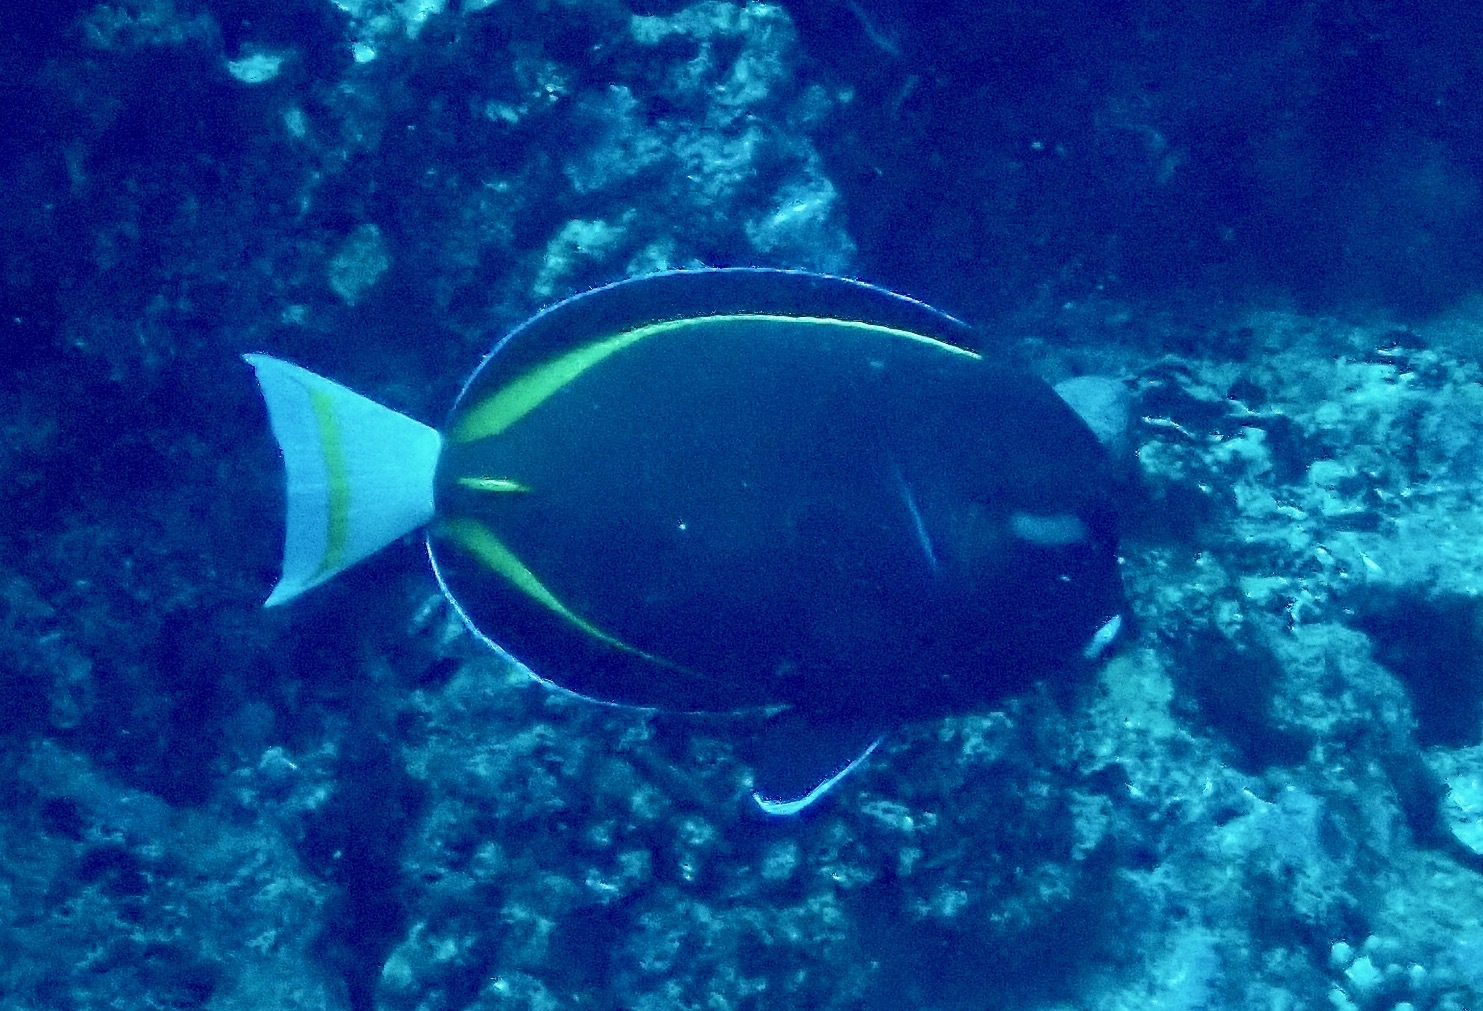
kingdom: Animalia
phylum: Chordata
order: Perciformes
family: Acanthuridae
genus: Acanthurus
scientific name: Acanthurus nigricans
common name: Whitecheek surgeonfish
